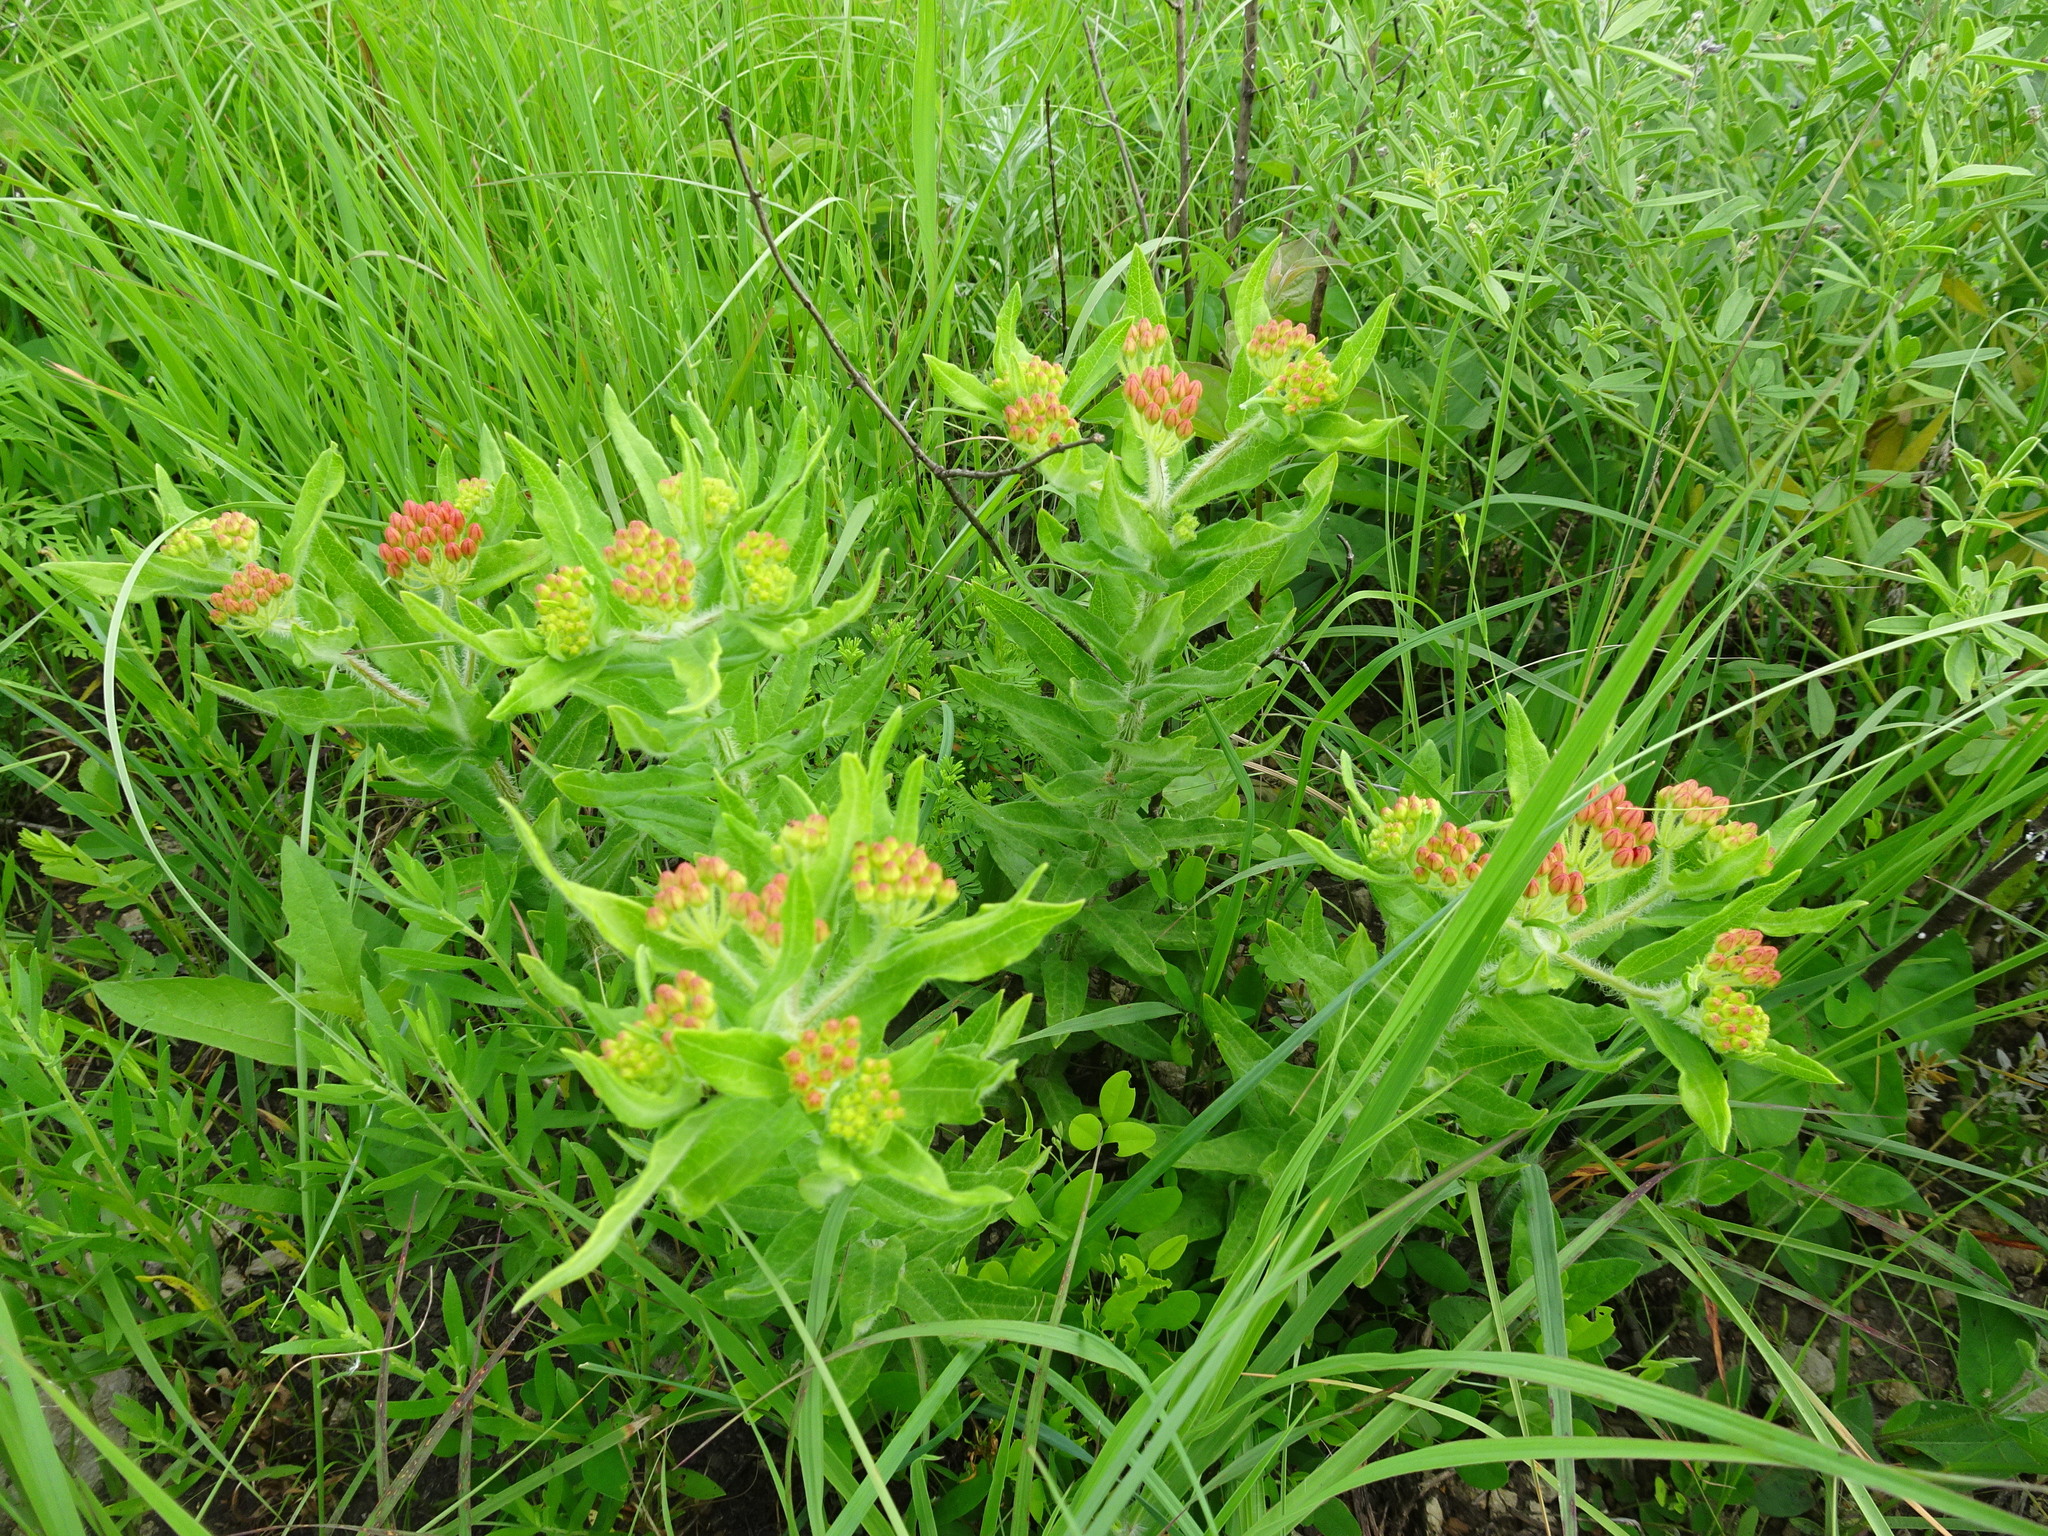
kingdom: Plantae
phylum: Tracheophyta
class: Magnoliopsida
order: Gentianales
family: Apocynaceae
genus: Asclepias
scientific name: Asclepias tuberosa
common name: Butterfly milkweed
